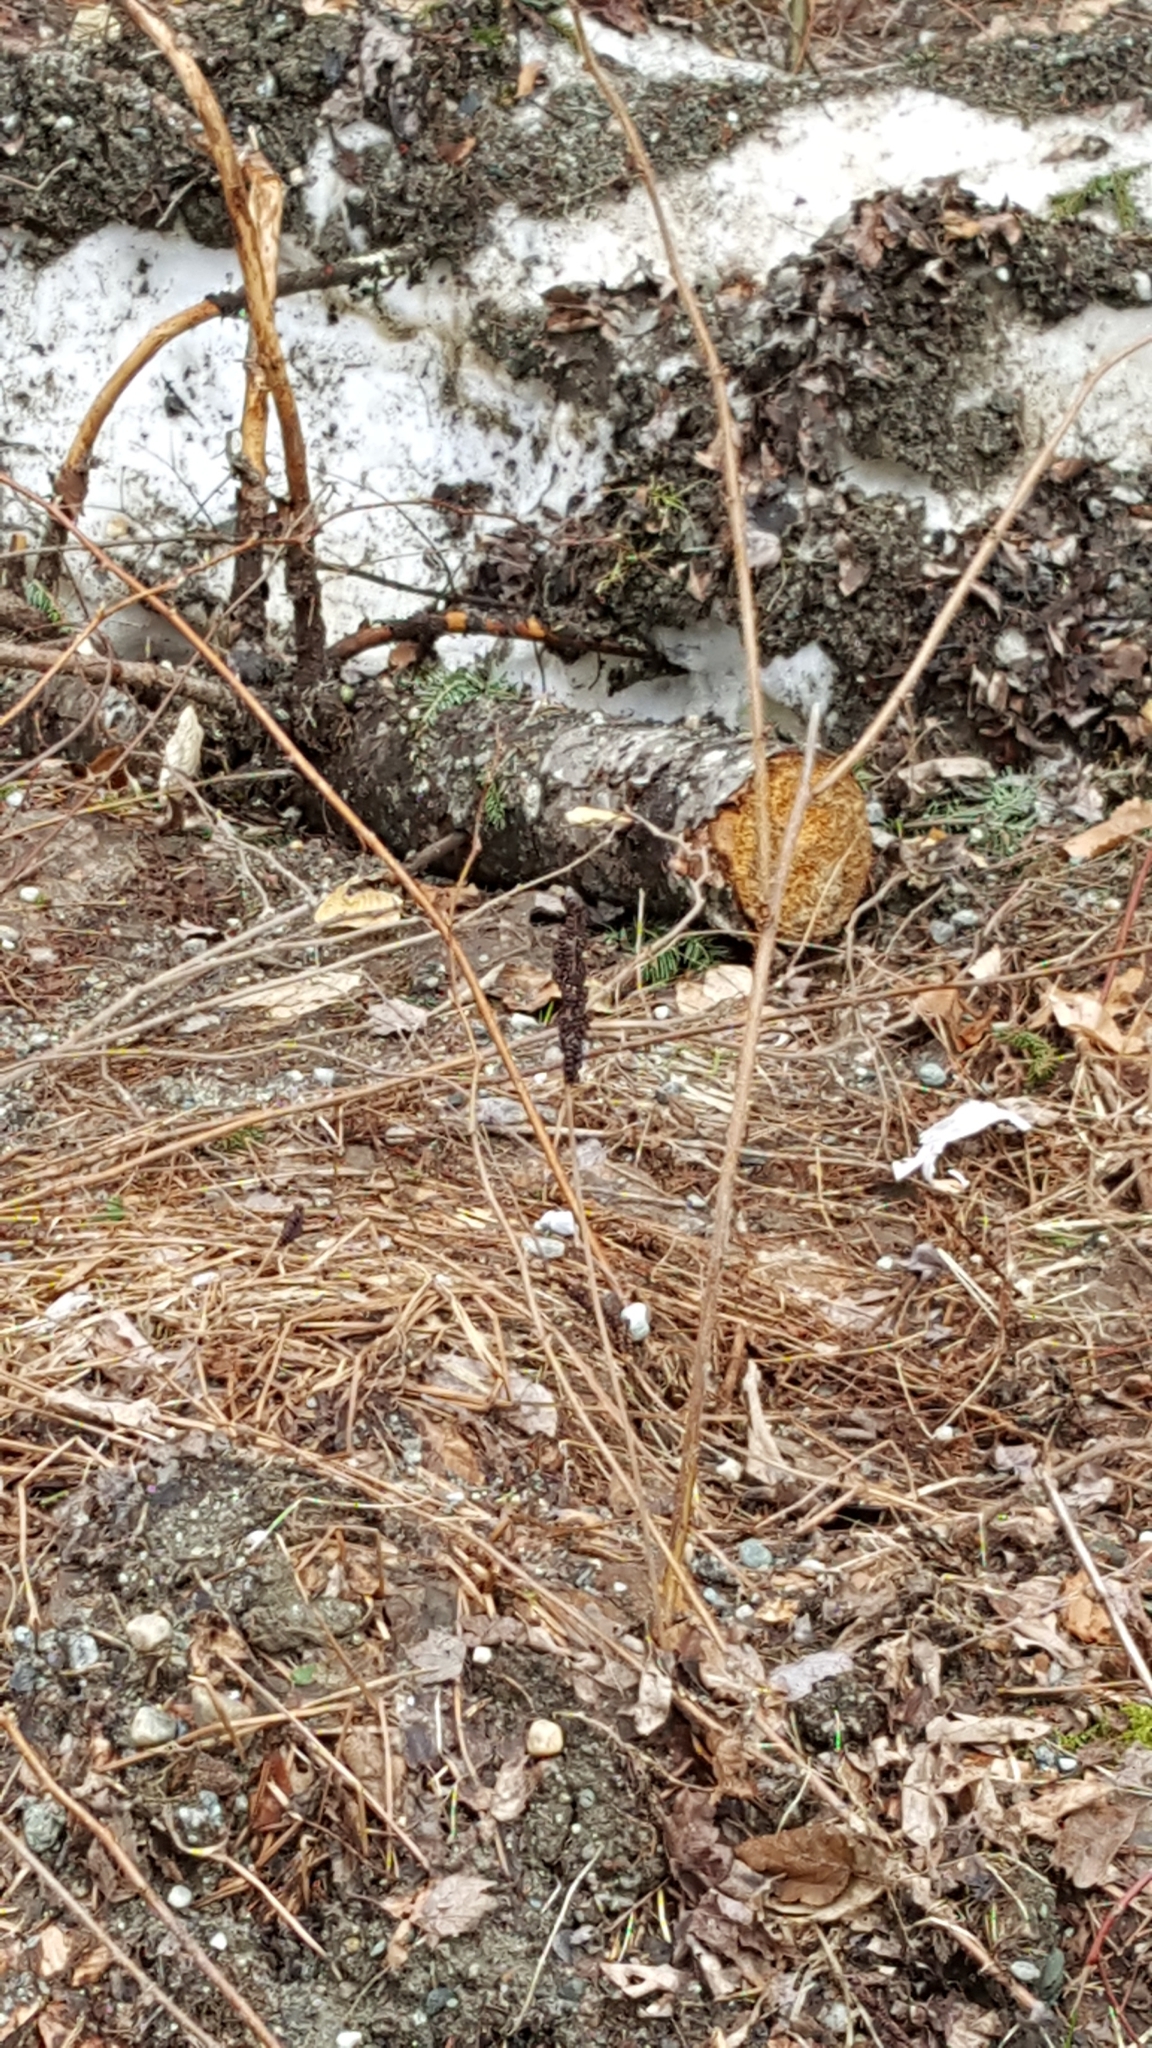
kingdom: Plantae
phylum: Tracheophyta
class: Polypodiopsida
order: Polypodiales
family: Onocleaceae
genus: Onoclea
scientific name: Onoclea sensibilis
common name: Sensitive fern
